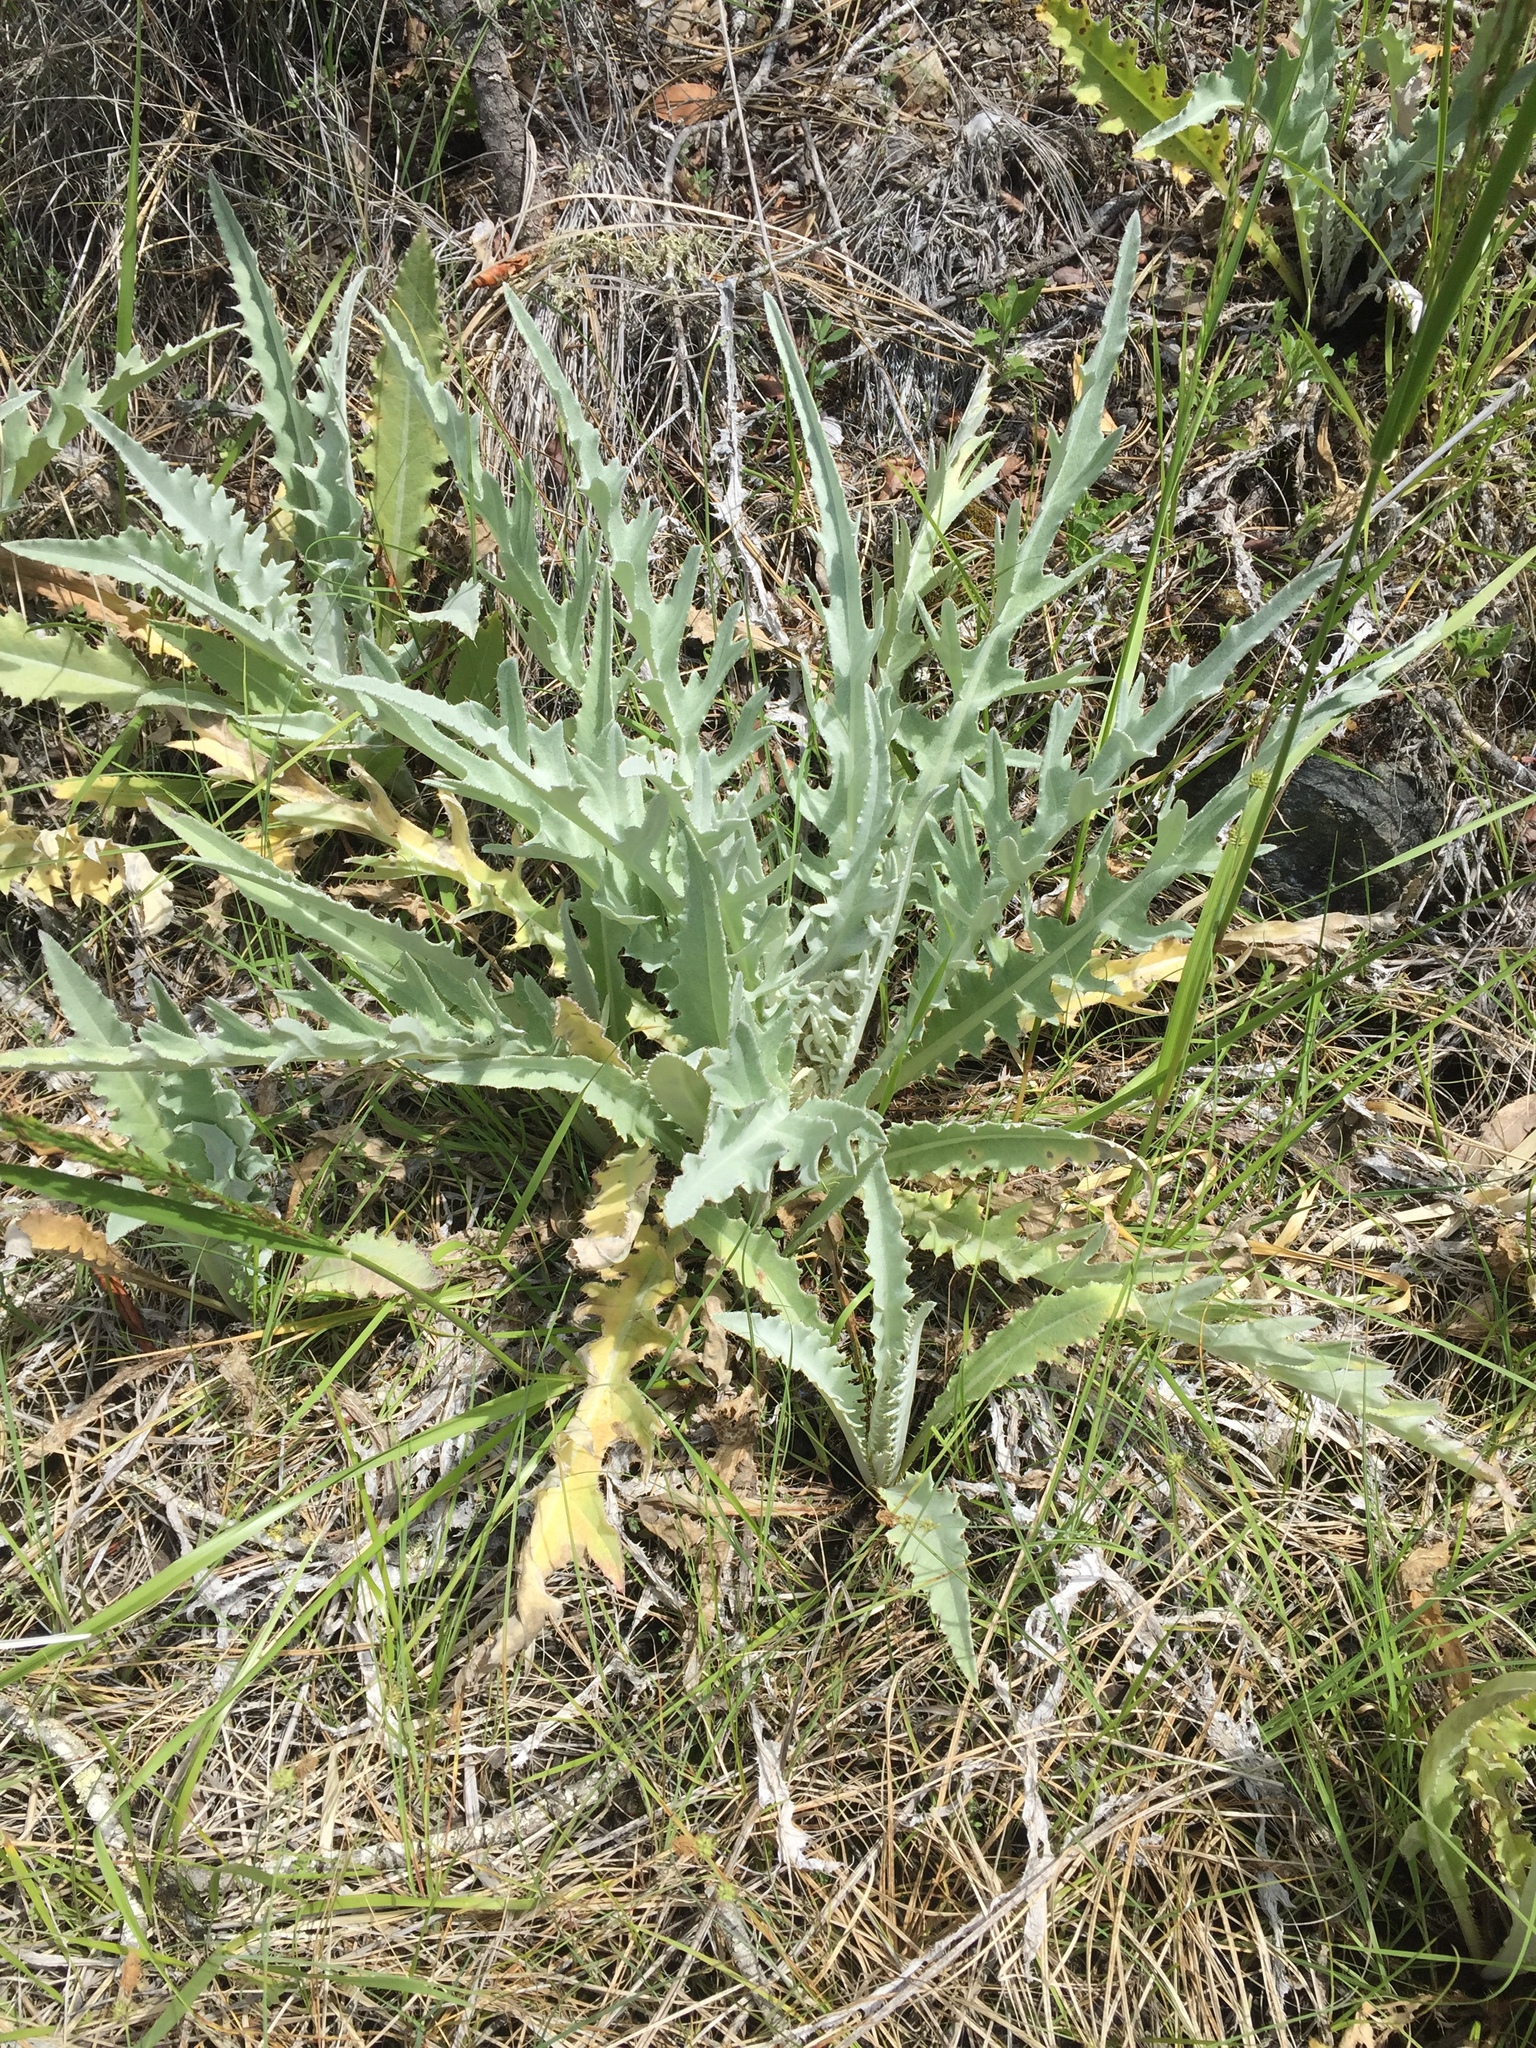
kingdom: Plantae
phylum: Tracheophyta
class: Magnoliopsida
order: Asterales
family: Asteraceae
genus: Cirsium
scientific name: Cirsium occidentale
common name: Western thistle
